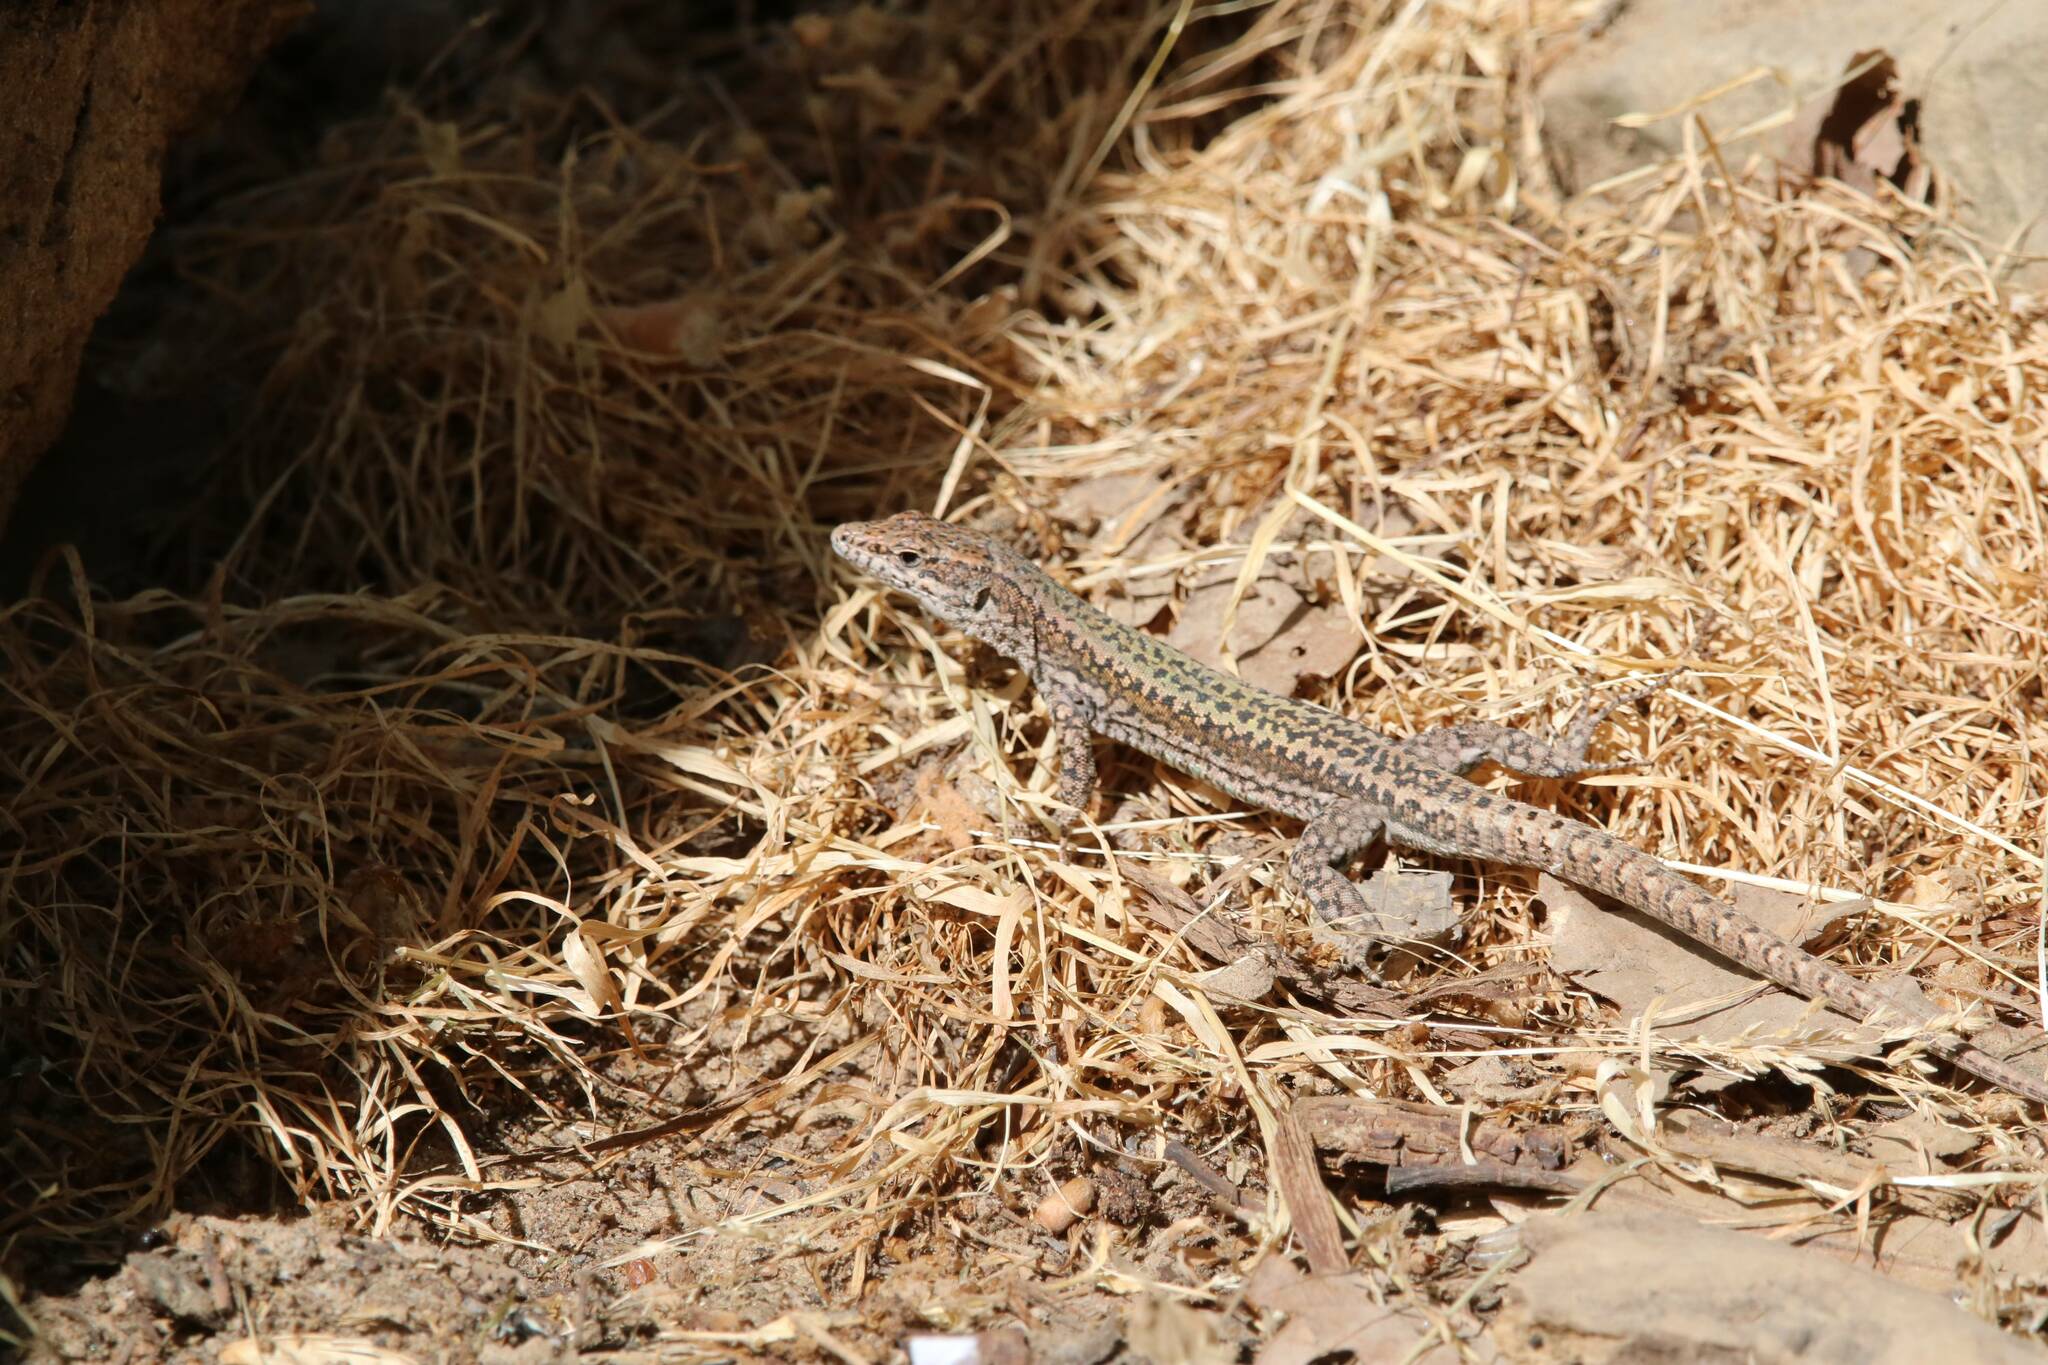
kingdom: Animalia
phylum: Chordata
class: Squamata
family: Lacertidae
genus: Podarcis
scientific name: Podarcis vaucheri
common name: Vaucher's wall lizard
